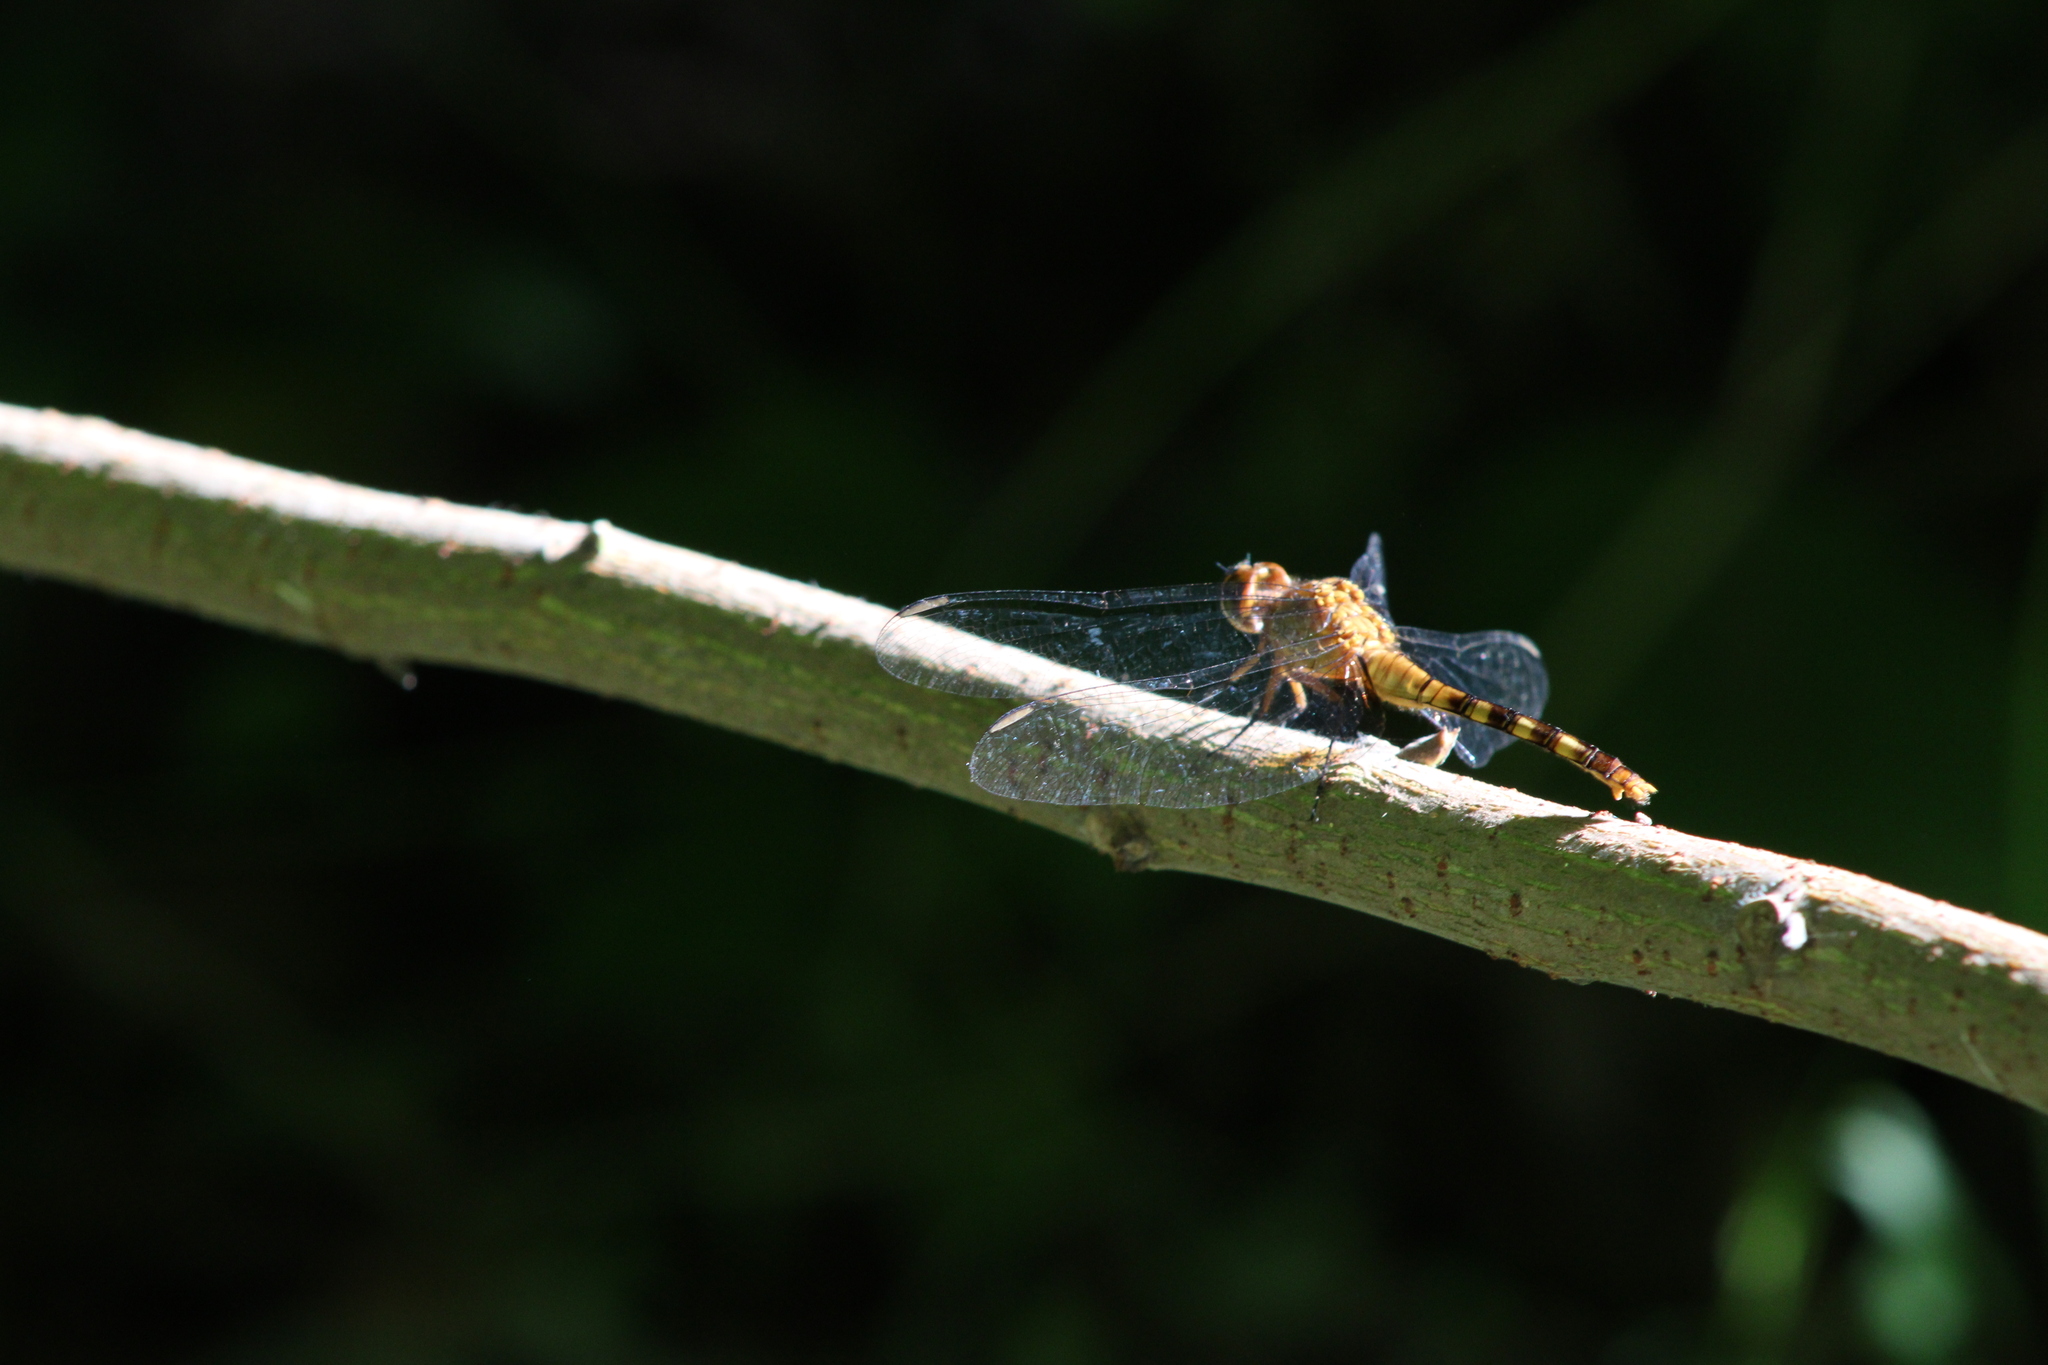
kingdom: Animalia
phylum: Arthropoda
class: Insecta
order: Odonata
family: Libellulidae
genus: Erythemis
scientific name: Erythemis attala
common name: Black pondhawk
